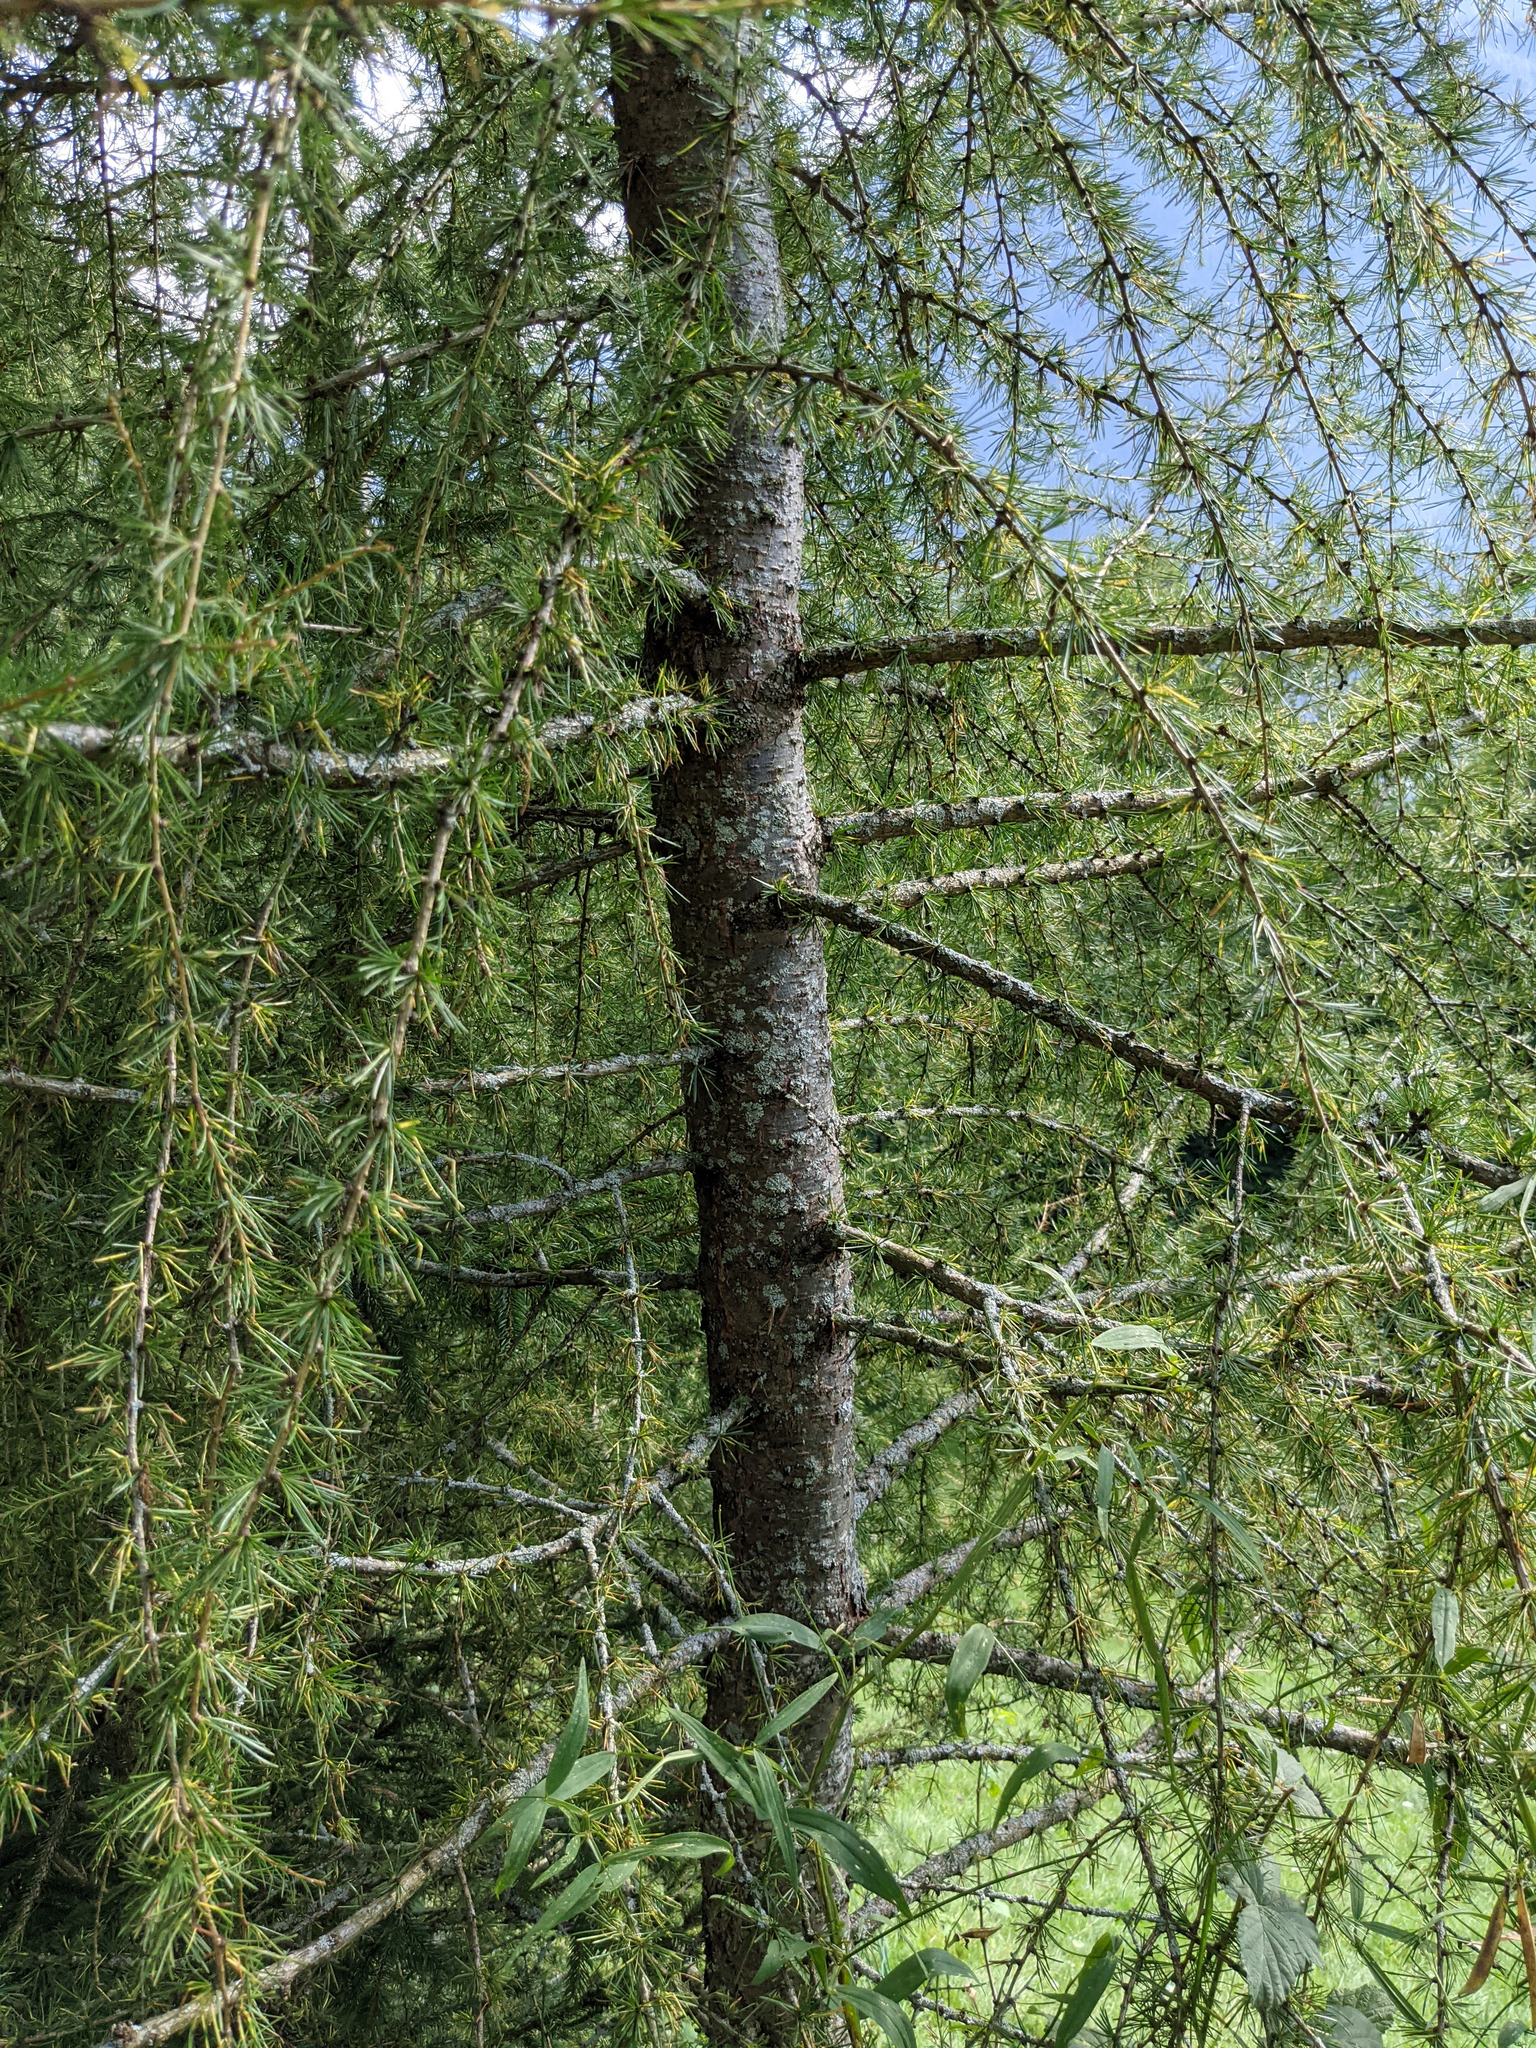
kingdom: Plantae
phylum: Tracheophyta
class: Pinopsida
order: Pinales
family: Pinaceae
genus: Larix
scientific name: Larix decidua
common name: European larch
